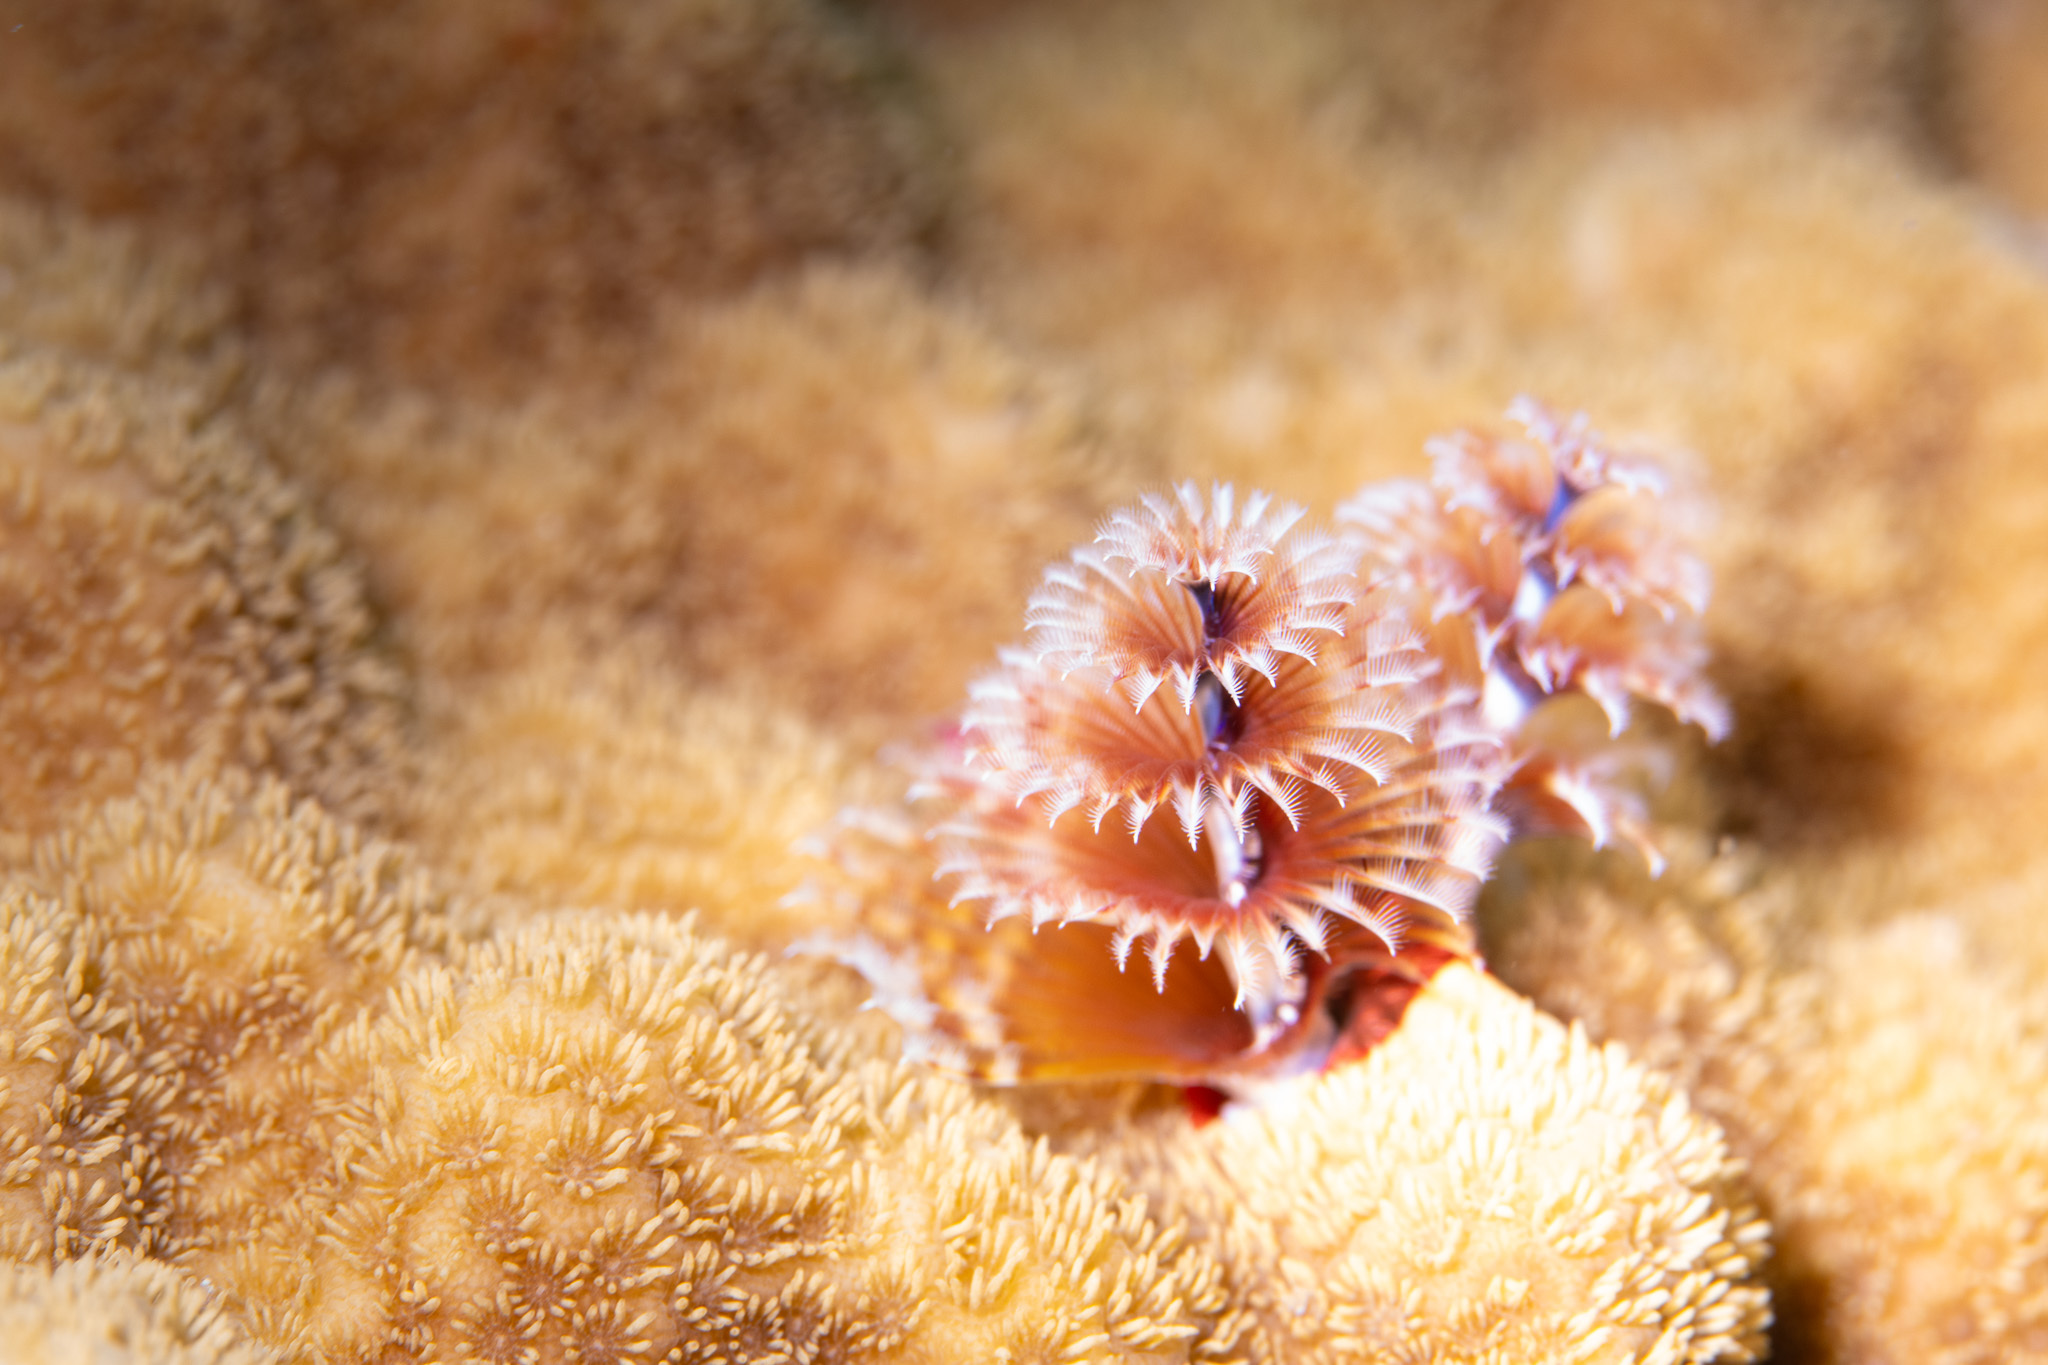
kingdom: Animalia
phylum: Annelida
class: Polychaeta
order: Sabellida
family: Serpulidae
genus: Spirobranchus
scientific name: Spirobranchus giganteus
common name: Christmas tree worm
